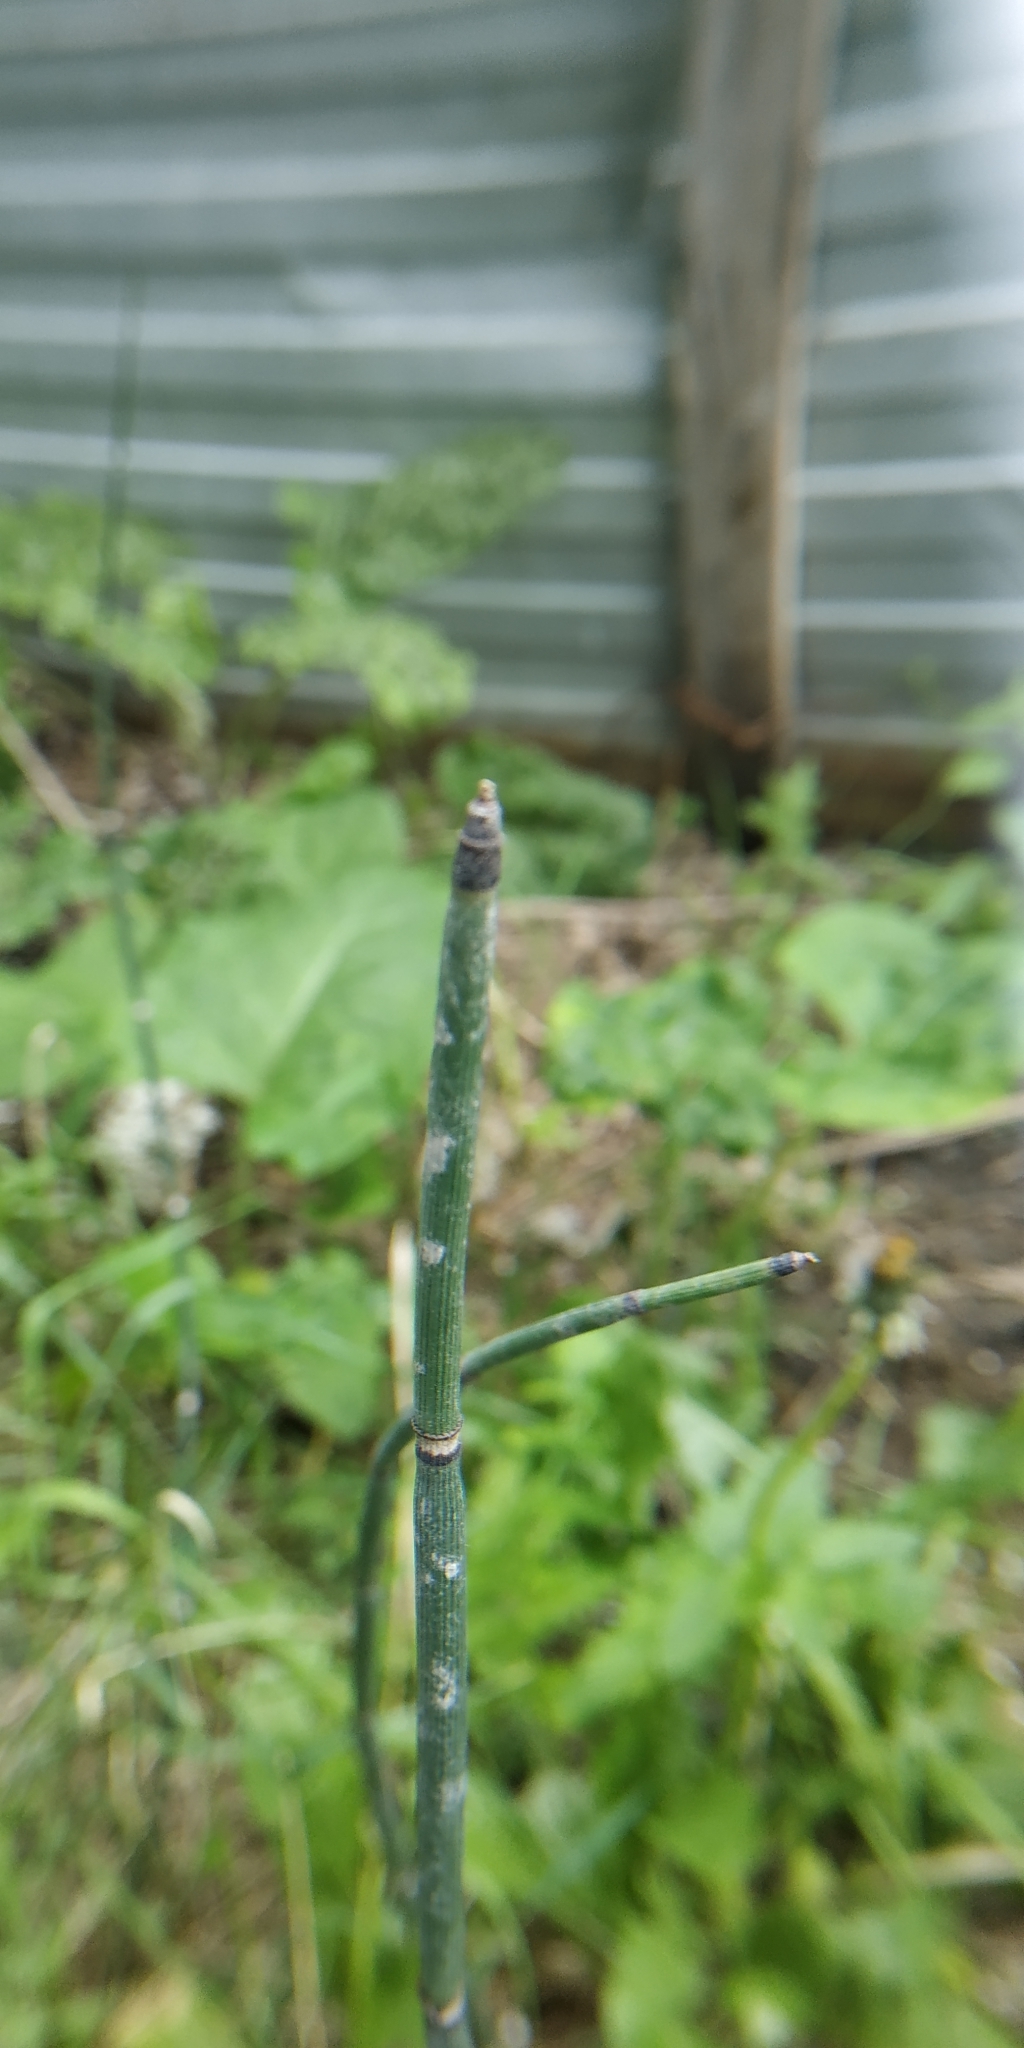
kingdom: Plantae
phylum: Tracheophyta
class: Polypodiopsida
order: Equisetales
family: Equisetaceae
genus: Equisetum
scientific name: Equisetum hyemale
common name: Rough horsetail
